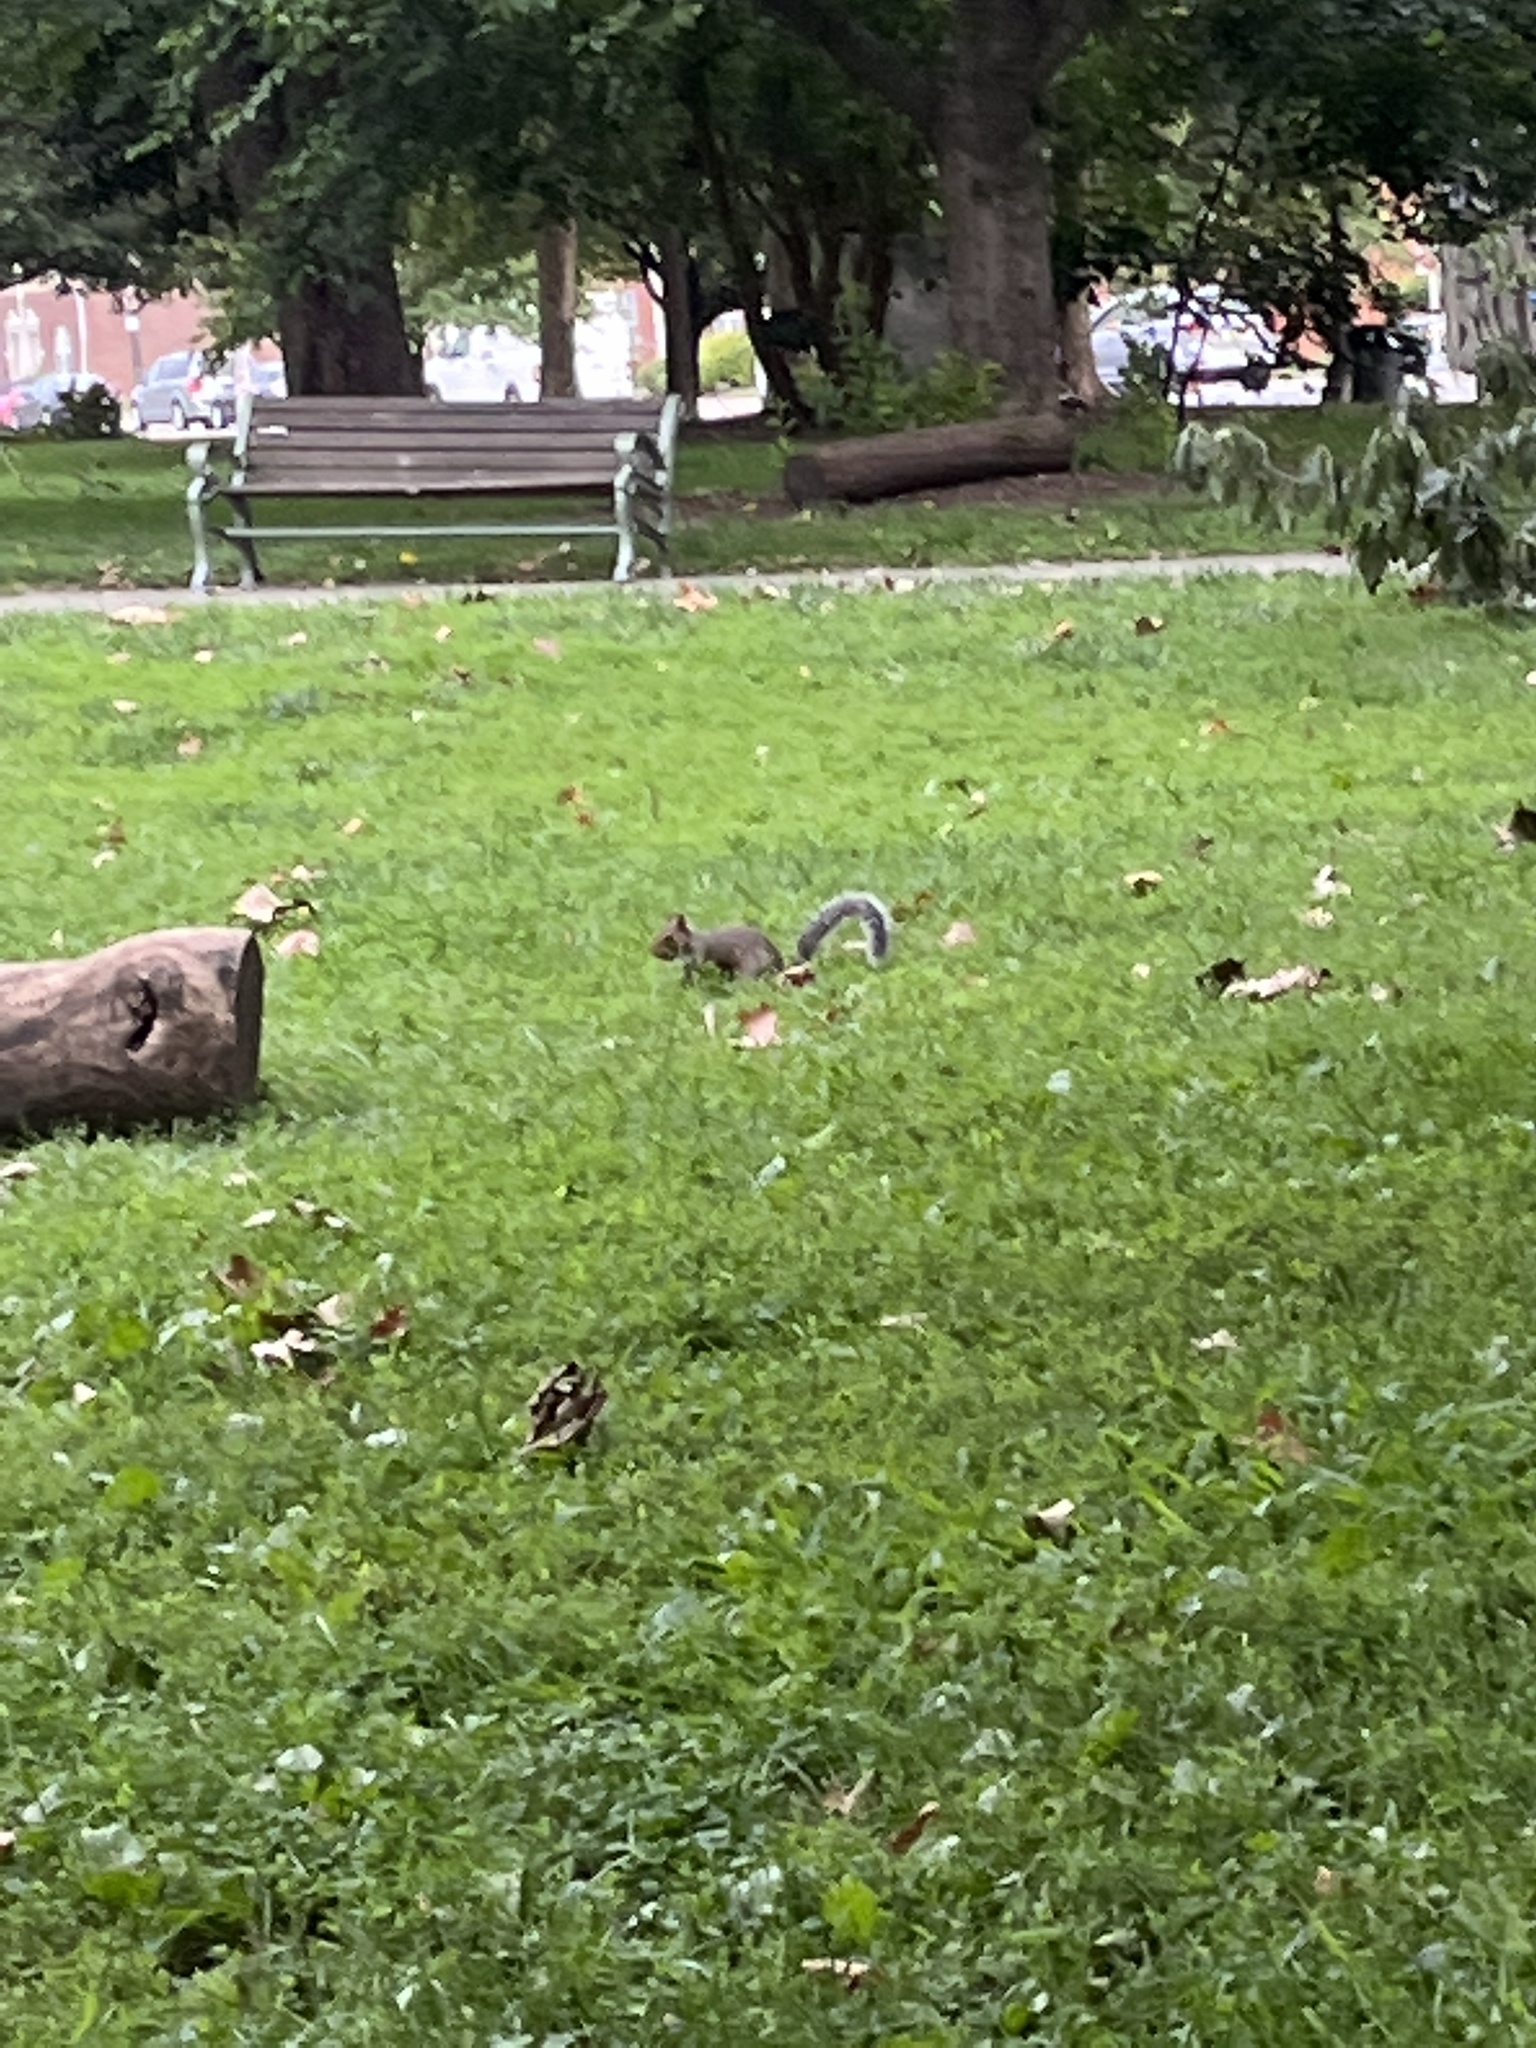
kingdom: Animalia
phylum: Chordata
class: Mammalia
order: Rodentia
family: Sciuridae
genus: Sciurus
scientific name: Sciurus carolinensis
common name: Eastern gray squirrel
